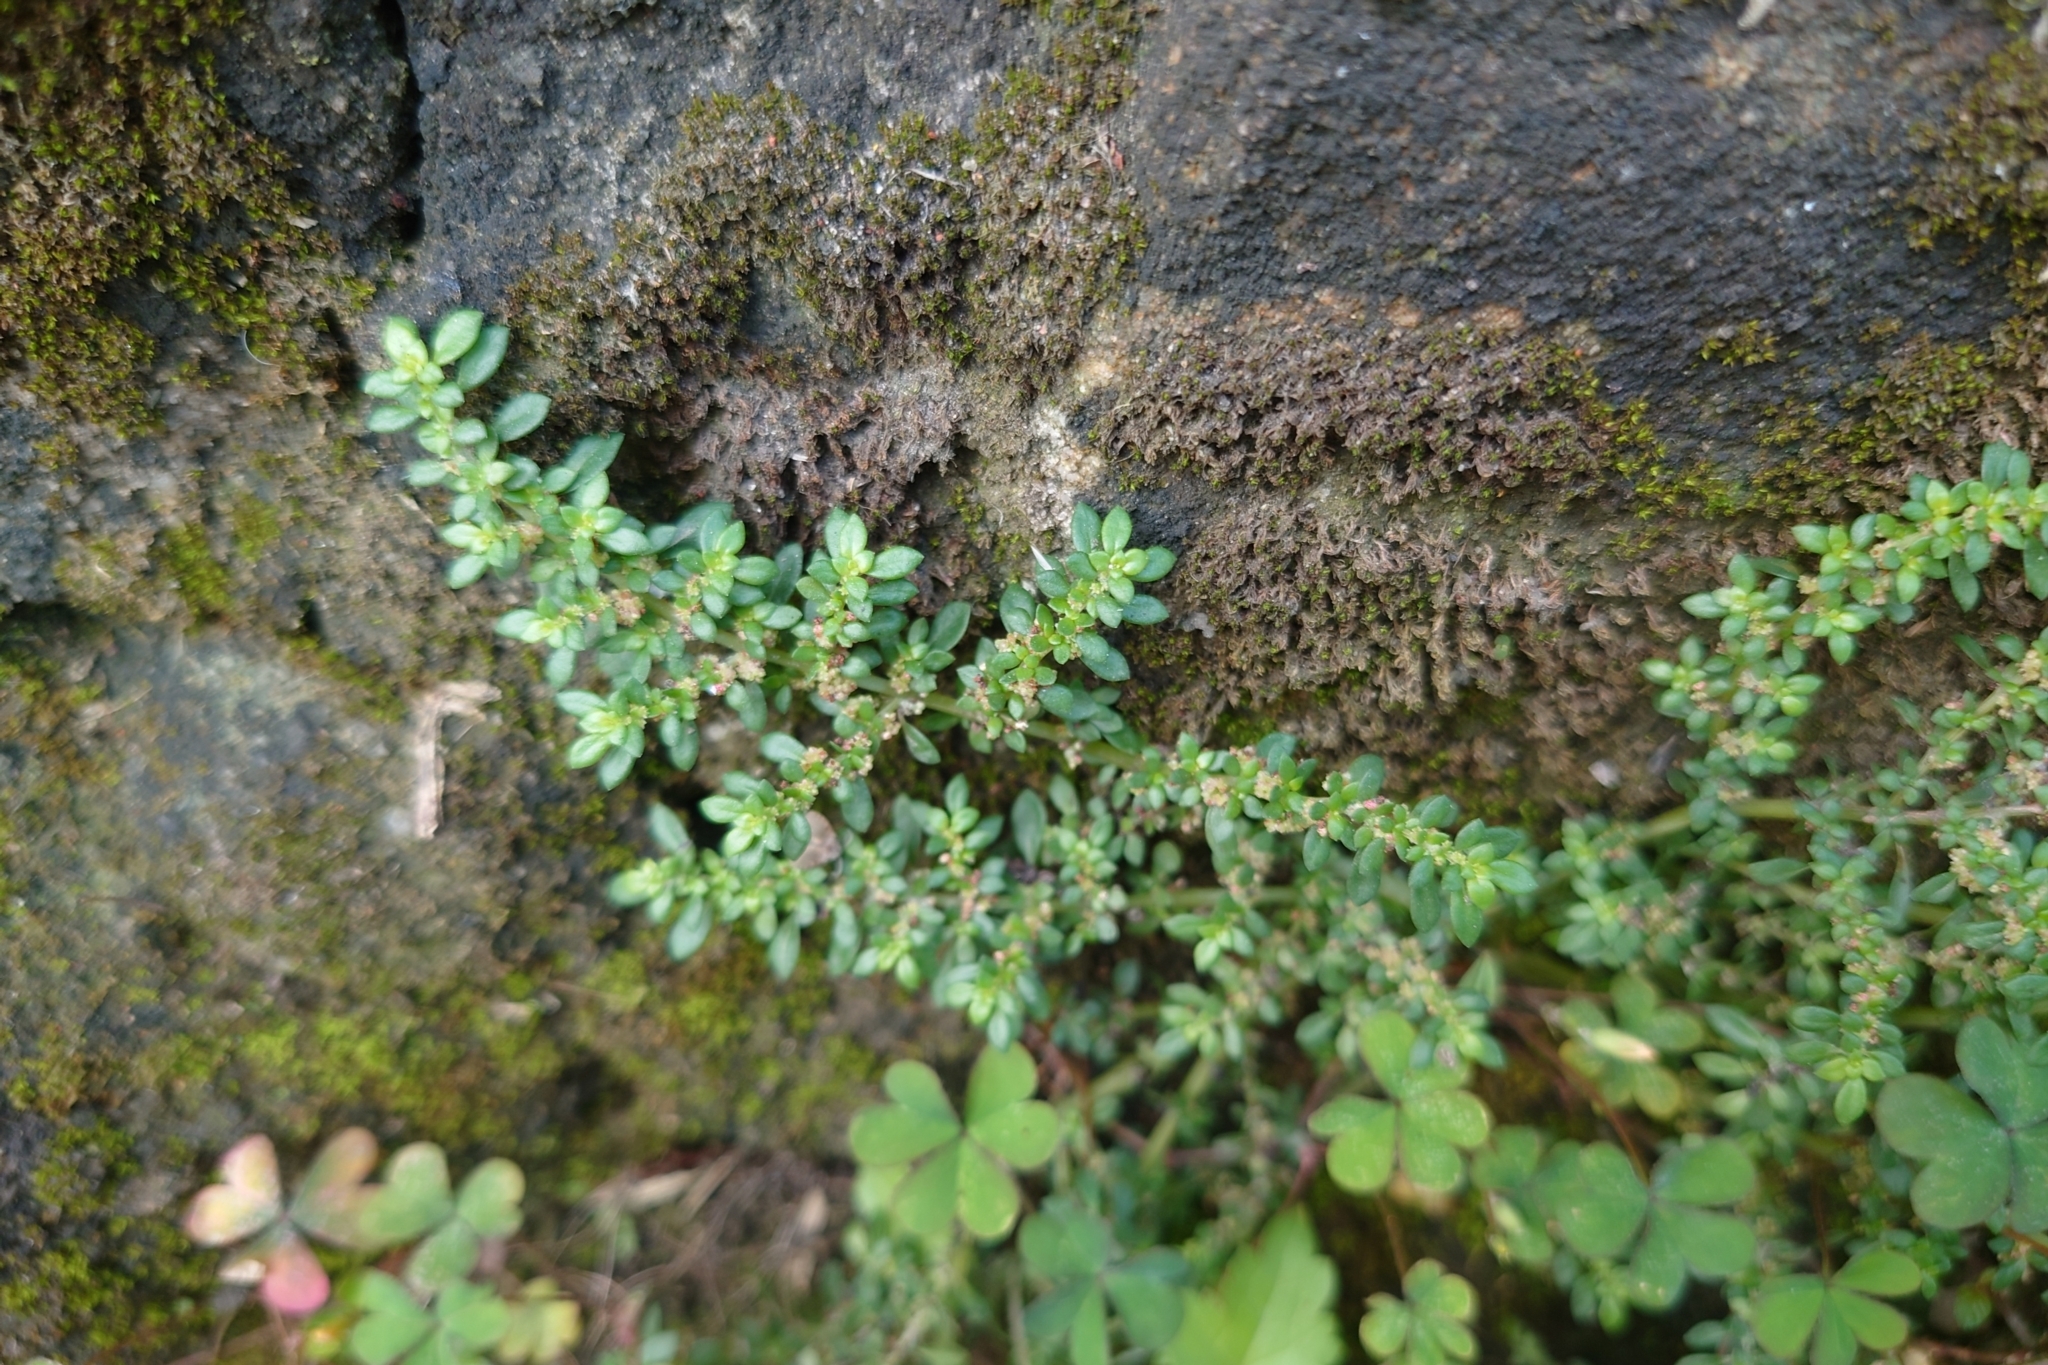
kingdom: Plantae
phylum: Tracheophyta
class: Magnoliopsida
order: Rosales
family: Urticaceae
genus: Pilea
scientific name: Pilea microphylla
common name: Artillery-plant
